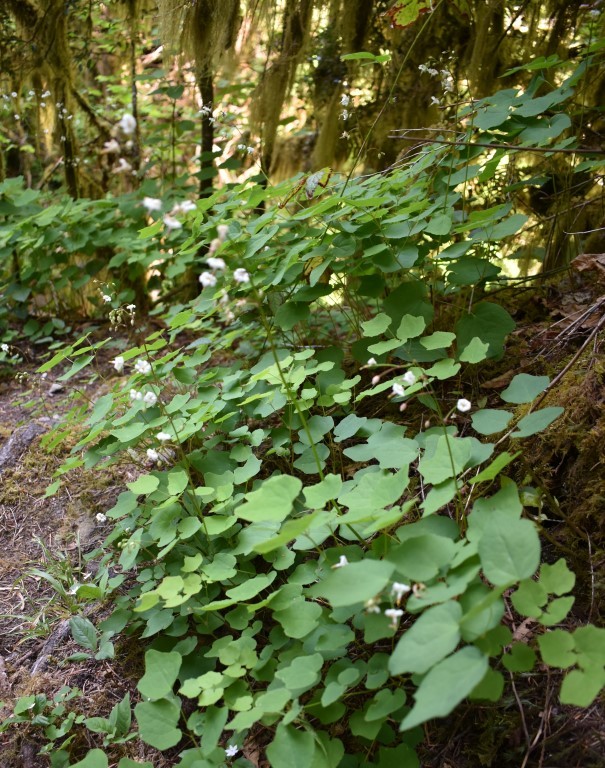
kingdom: Plantae
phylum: Tracheophyta
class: Magnoliopsida
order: Ranunculales
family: Berberidaceae
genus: Vancouveria
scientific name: Vancouveria hexandra
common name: Northern inside-out-flower
